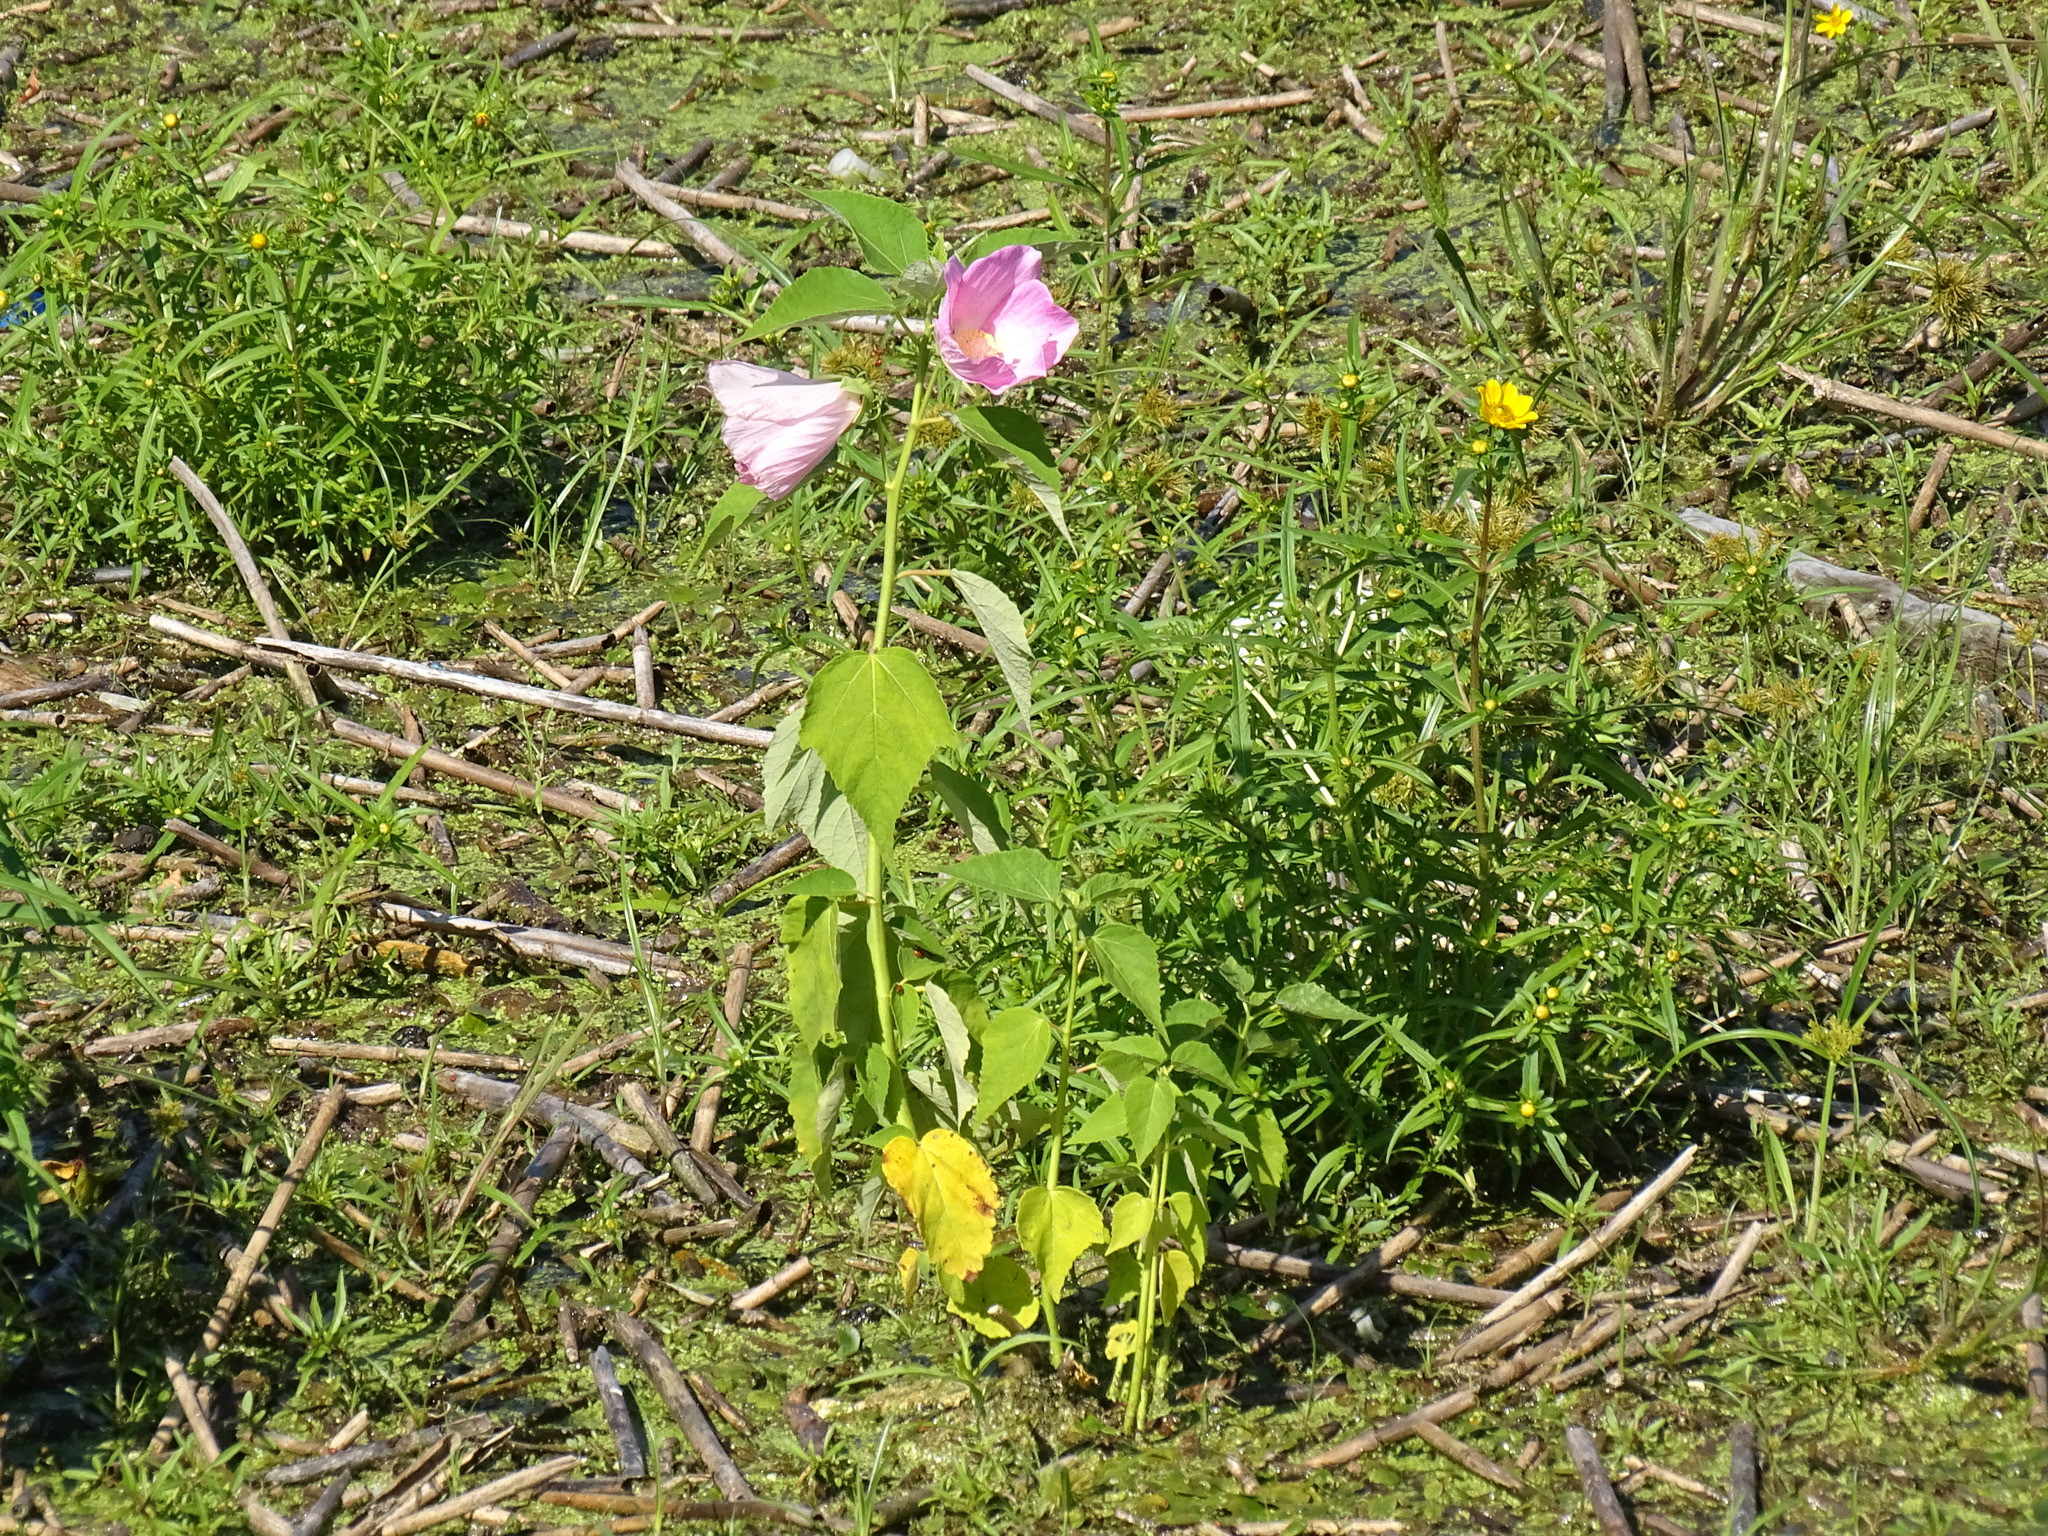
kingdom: Plantae
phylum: Tracheophyta
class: Magnoliopsida
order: Malvales
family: Malvaceae
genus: Hibiscus
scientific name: Hibiscus moscheutos
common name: Common rose-mallow
